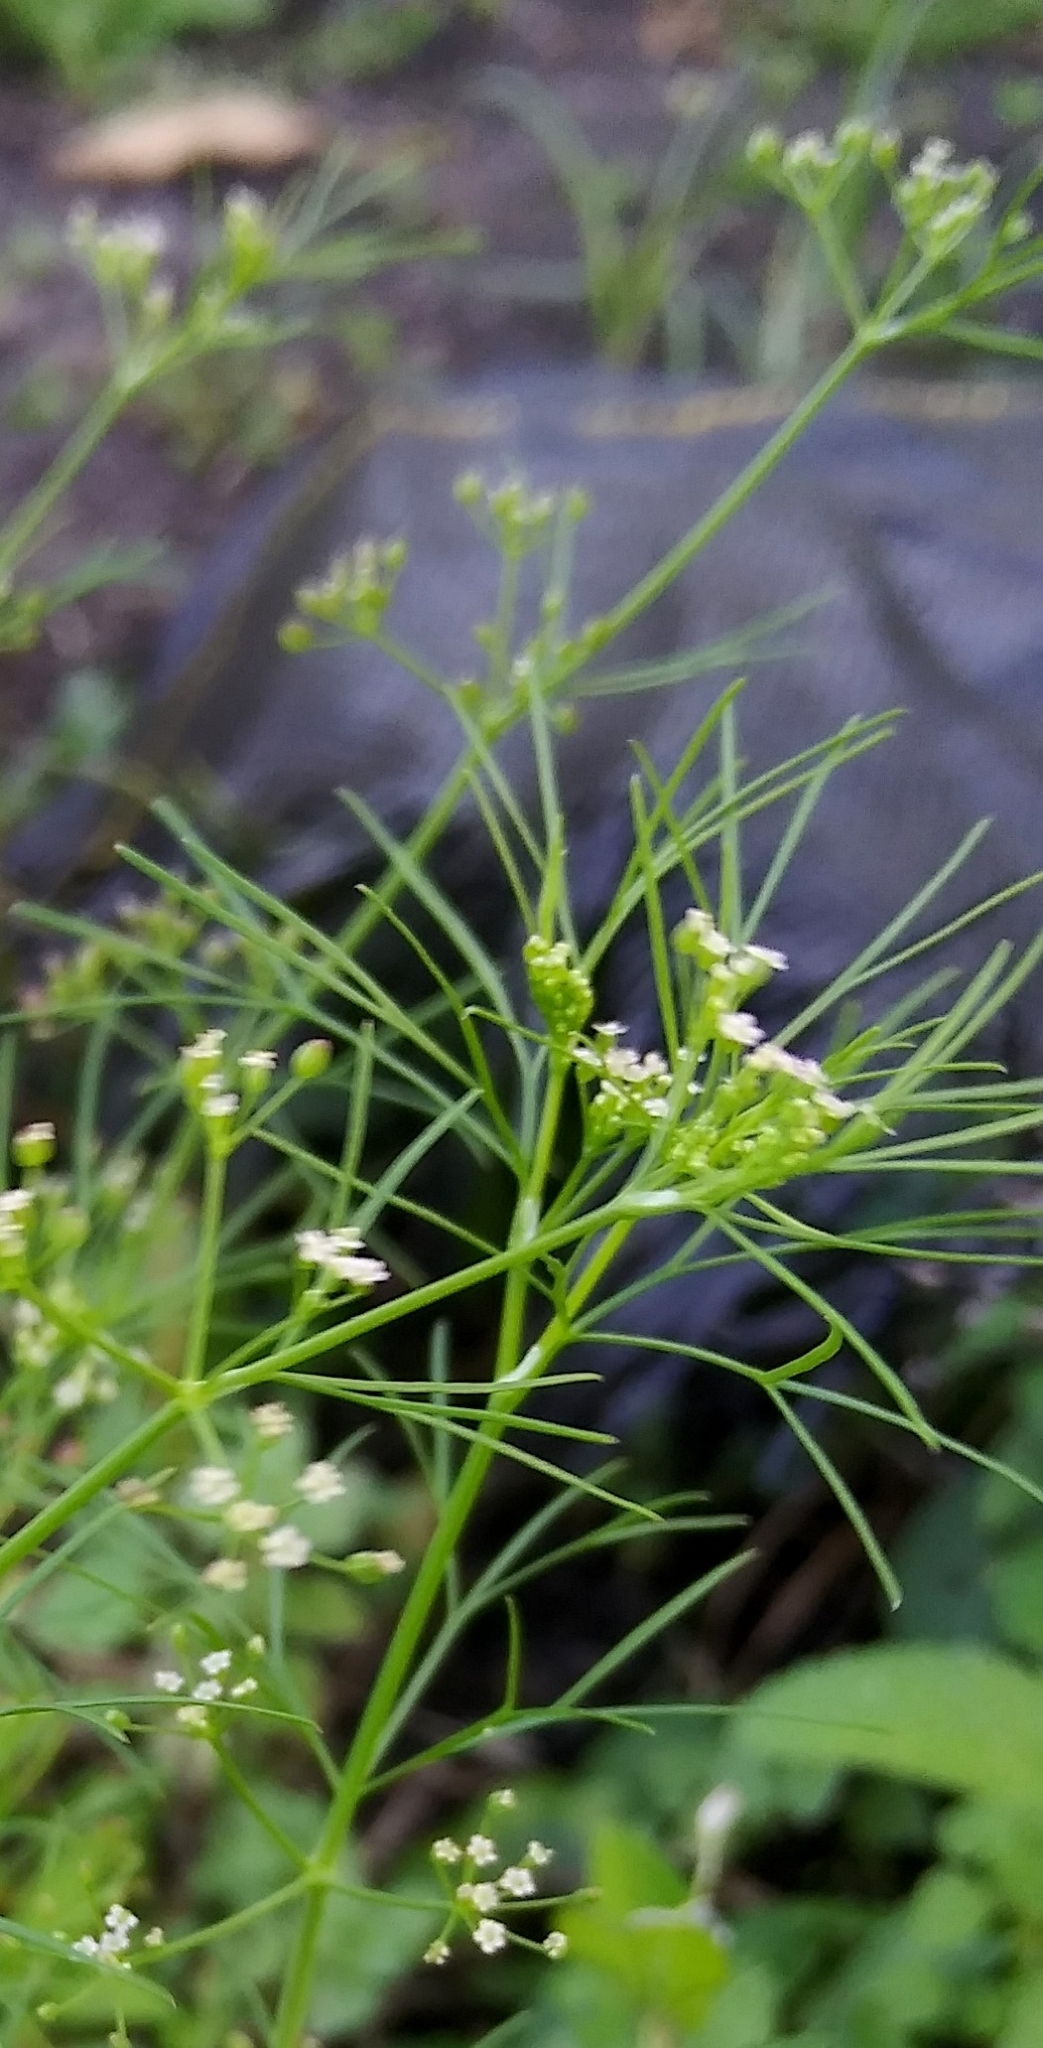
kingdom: Plantae
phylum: Tracheophyta
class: Magnoliopsida
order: Apiales
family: Apiaceae
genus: Cyclospermum
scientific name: Cyclospermum leptophyllum
